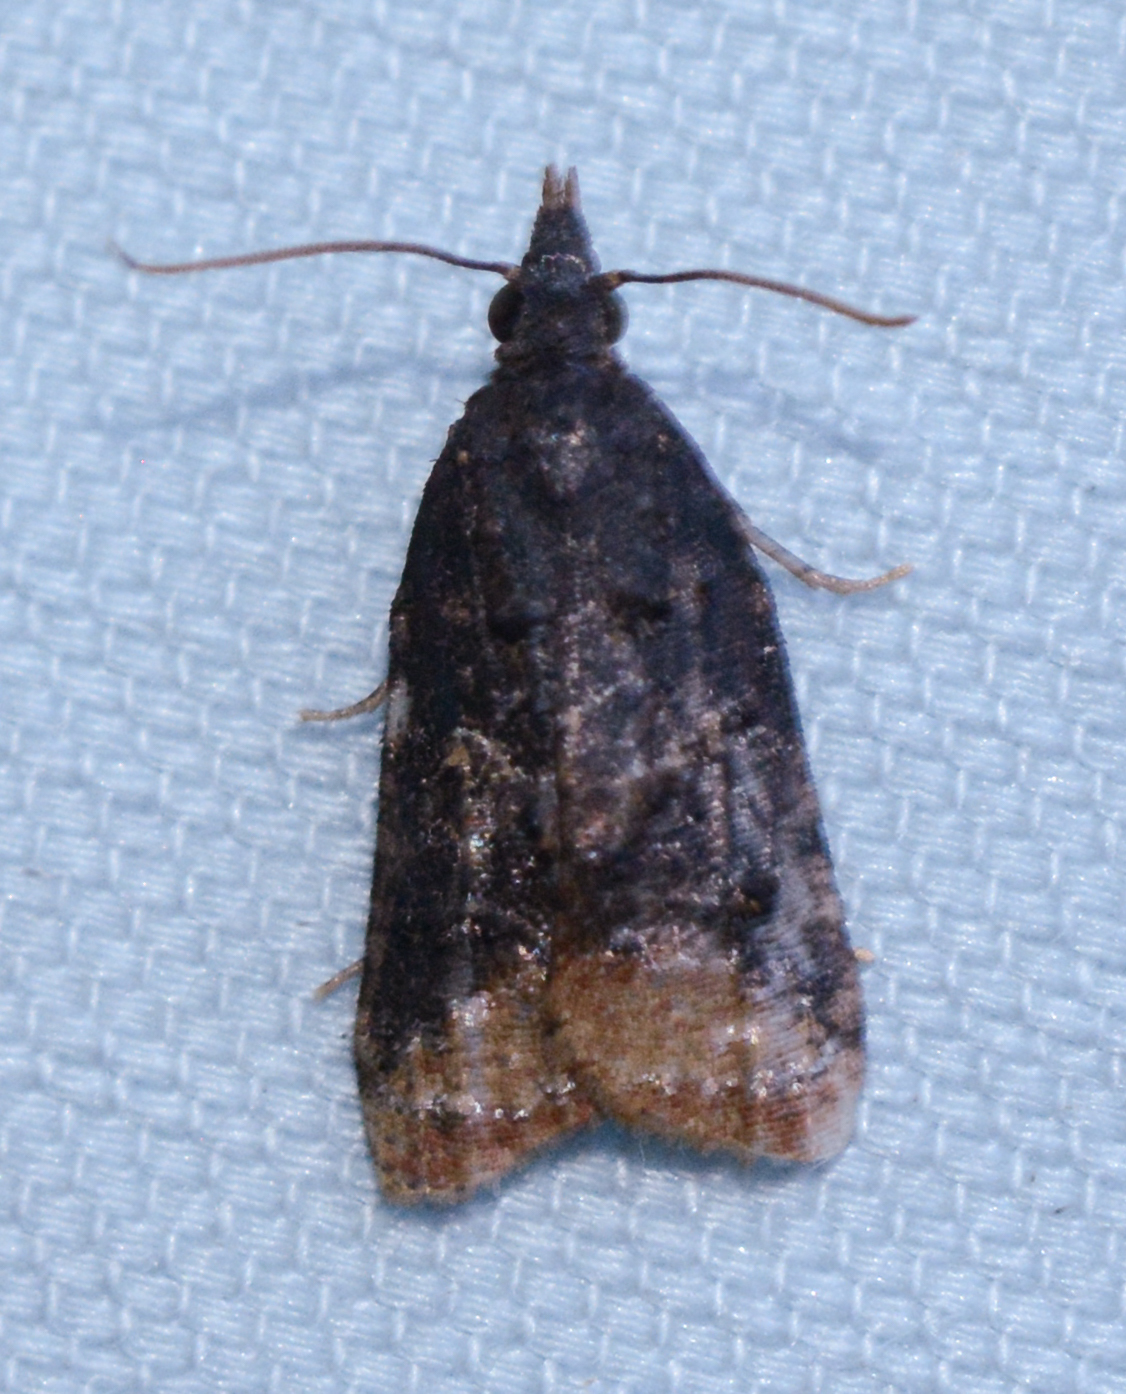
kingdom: Animalia
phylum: Arthropoda
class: Insecta
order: Lepidoptera
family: Tortricidae
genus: Platynota
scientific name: Platynota flavedana
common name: Black-shaded platynota moth
